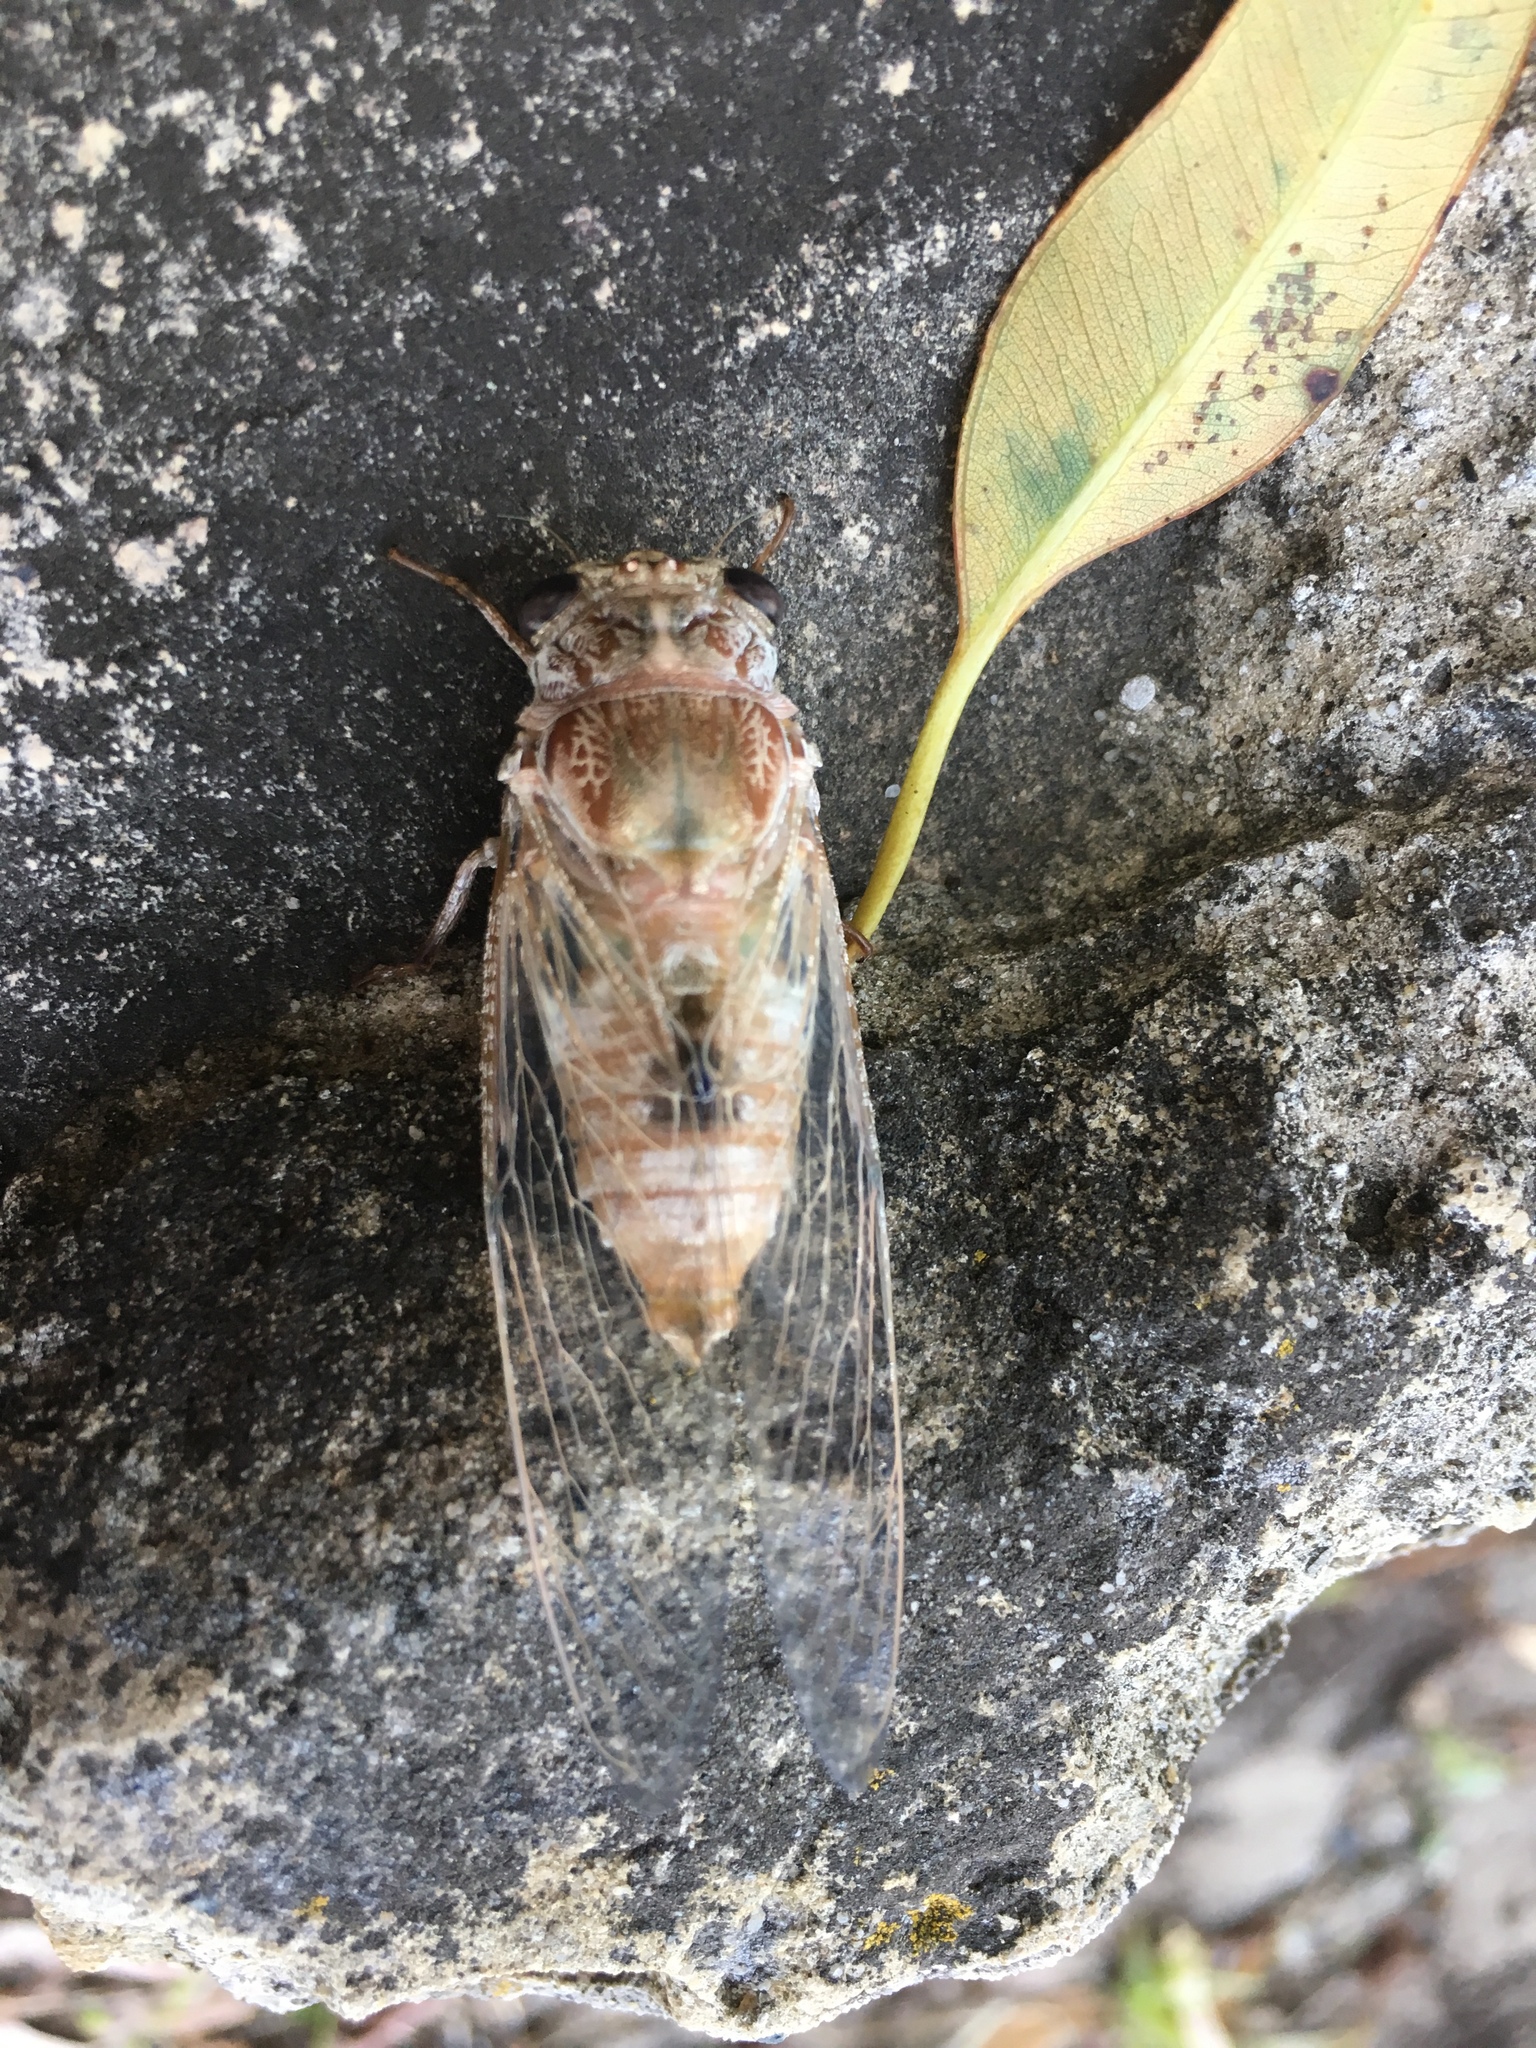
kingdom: Animalia
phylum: Arthropoda
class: Insecta
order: Hemiptera
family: Cicadidae
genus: Aleeta
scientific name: Aleeta curvicosta
